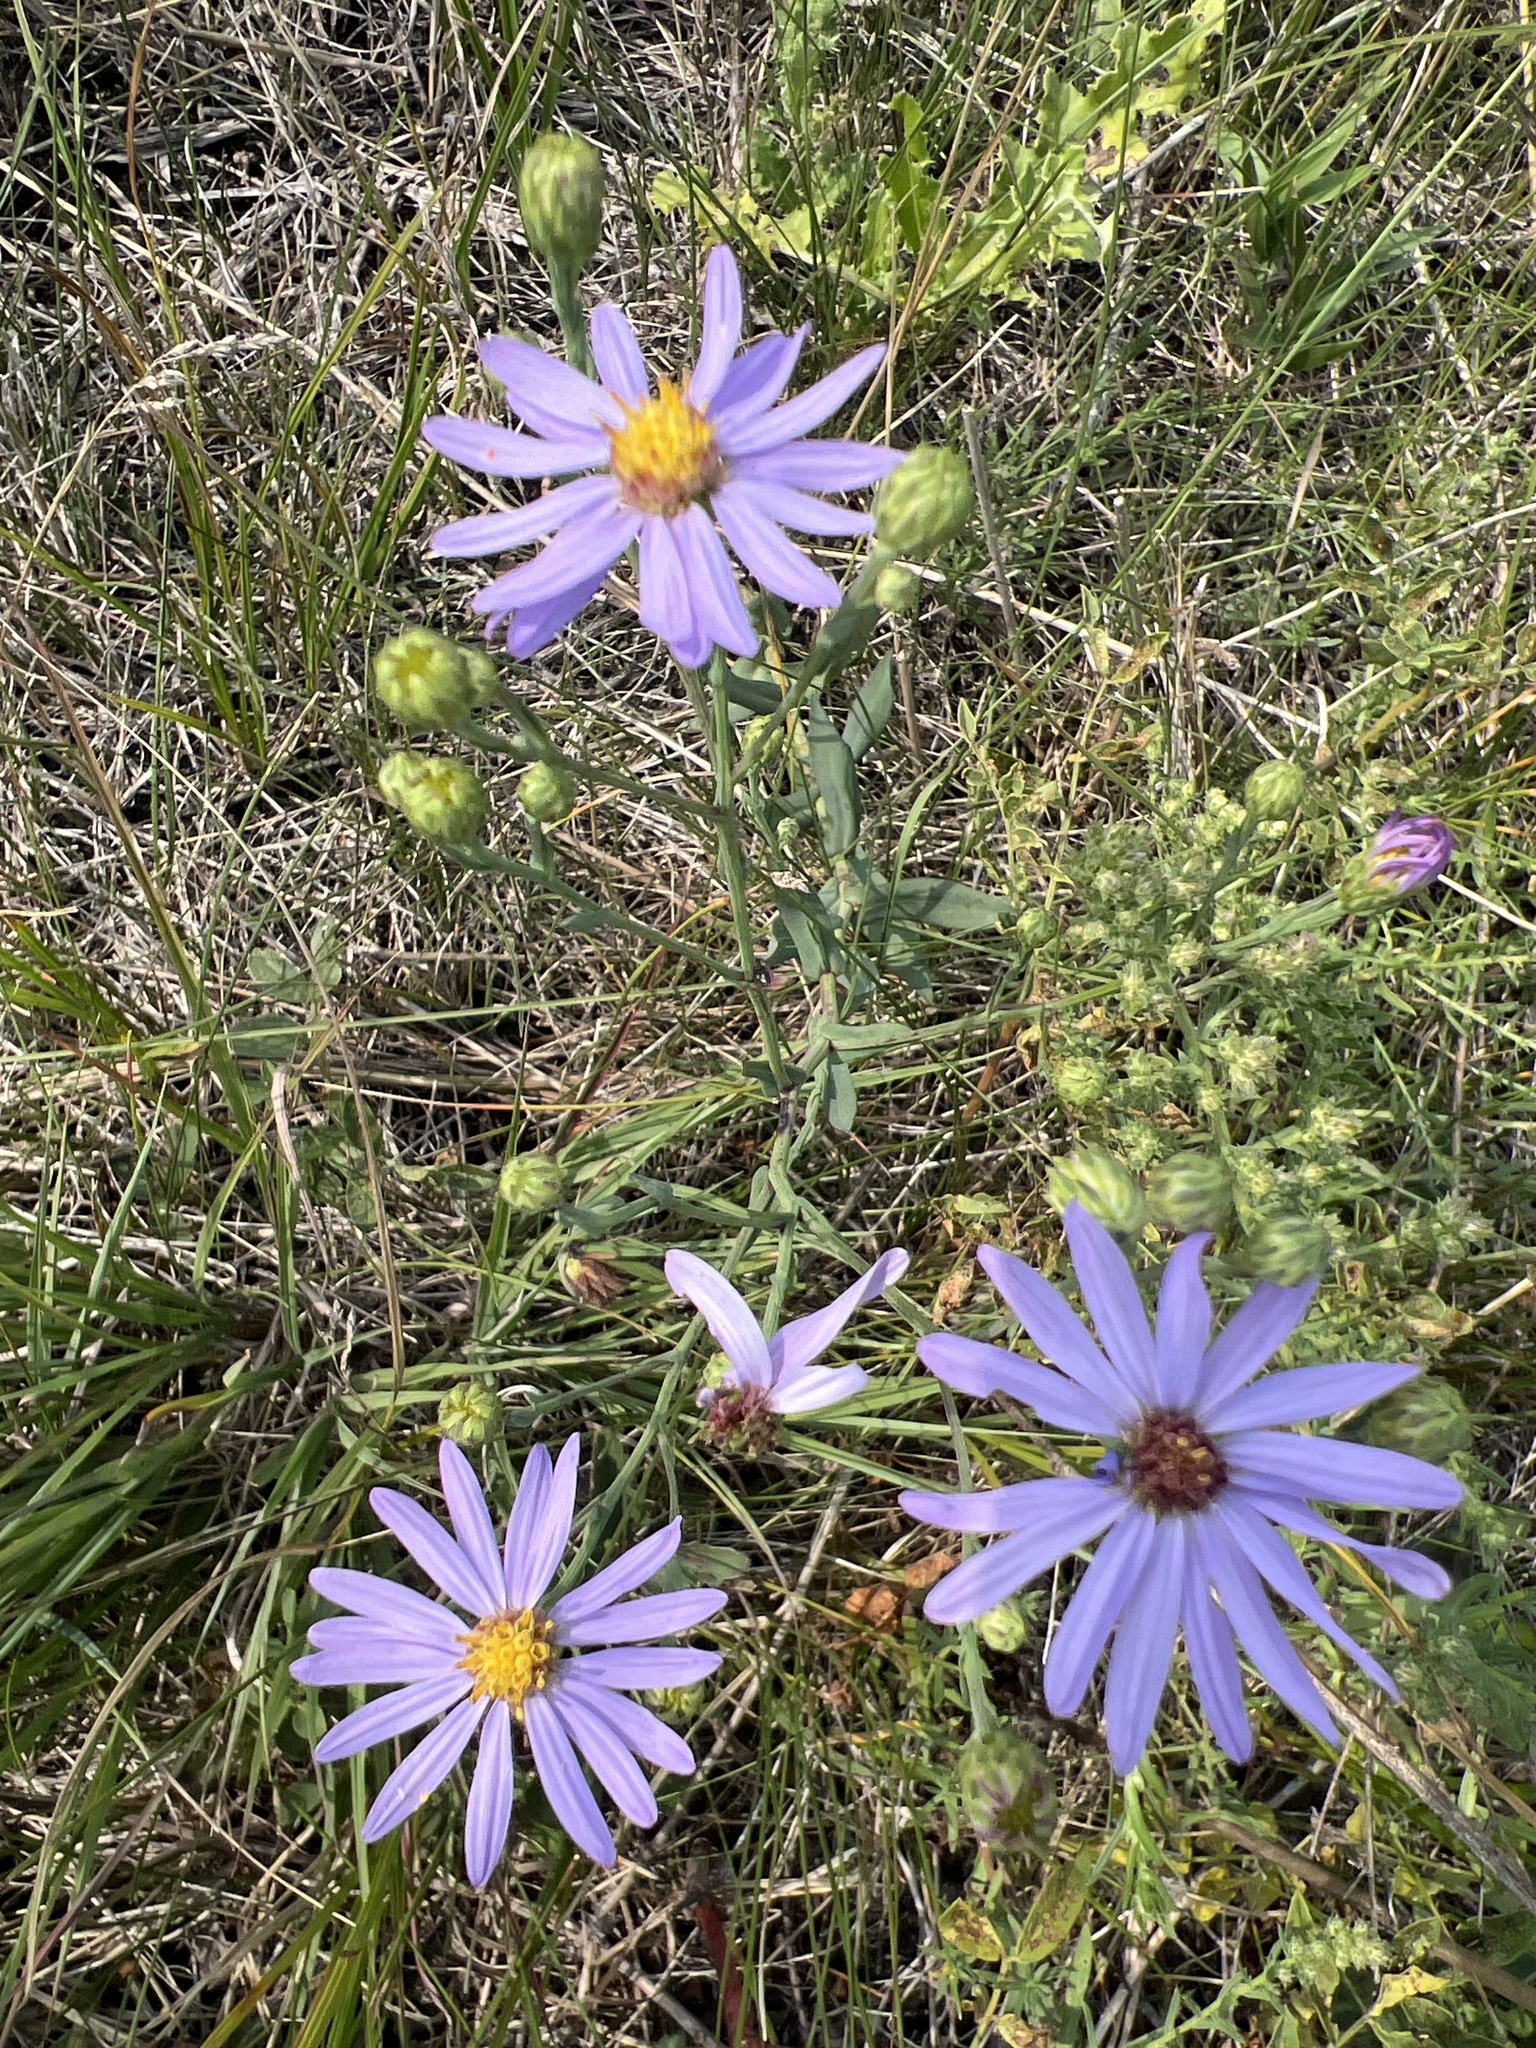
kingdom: Plantae
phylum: Tracheophyta
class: Magnoliopsida
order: Asterales
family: Asteraceae
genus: Symphyotrichum
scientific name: Symphyotrichum laeve
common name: Glaucous aster
